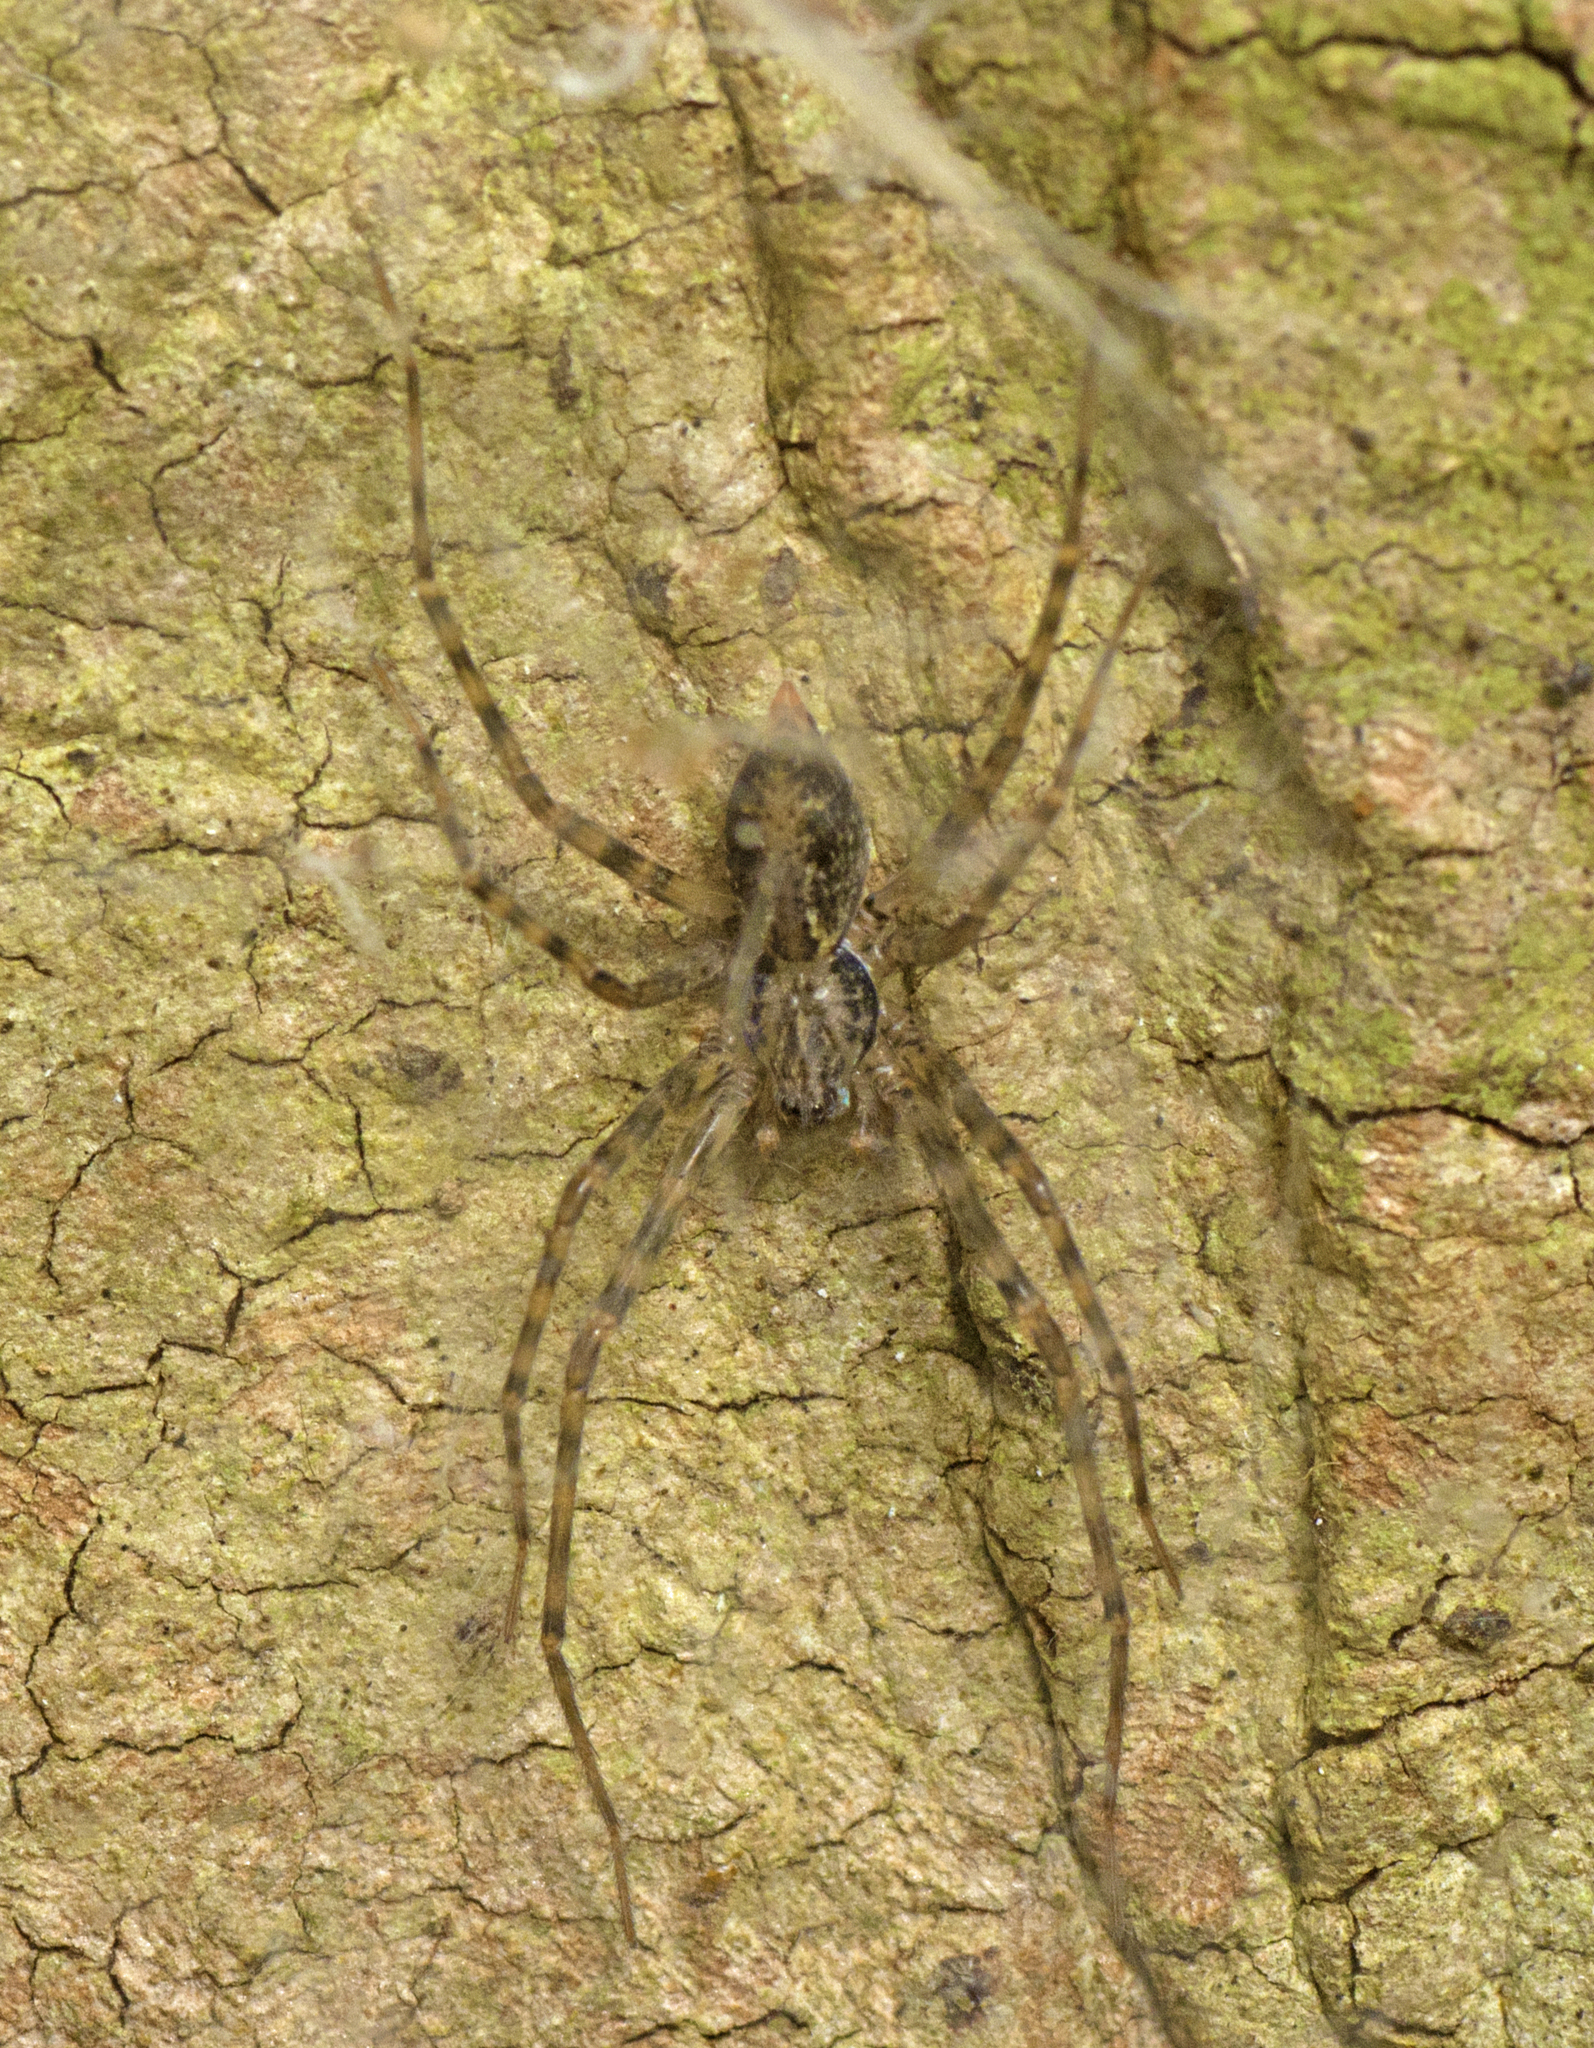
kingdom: Animalia
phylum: Arthropoda
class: Arachnida
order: Araneae
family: Stiphidiidae
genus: Stiphidion
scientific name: Stiphidion facetum
